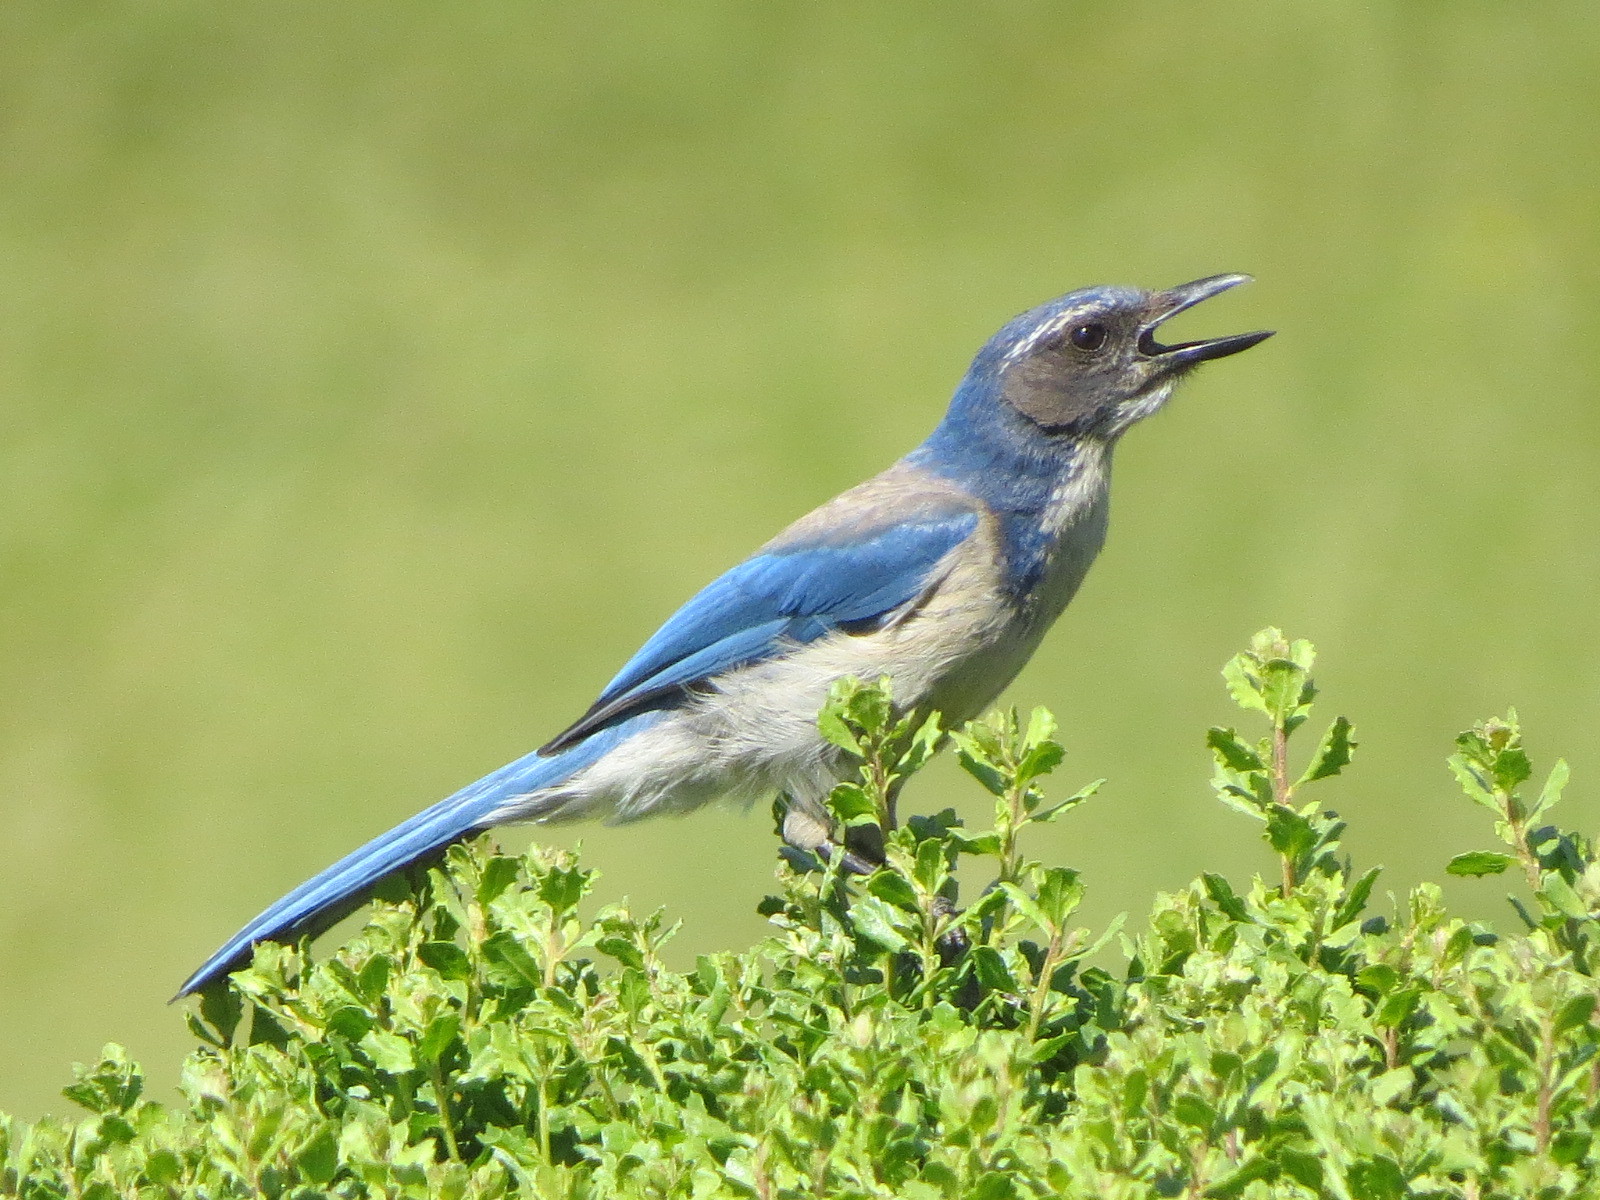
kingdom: Animalia
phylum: Chordata
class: Aves
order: Passeriformes
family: Corvidae
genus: Aphelocoma
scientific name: Aphelocoma californica
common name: California scrub-jay
